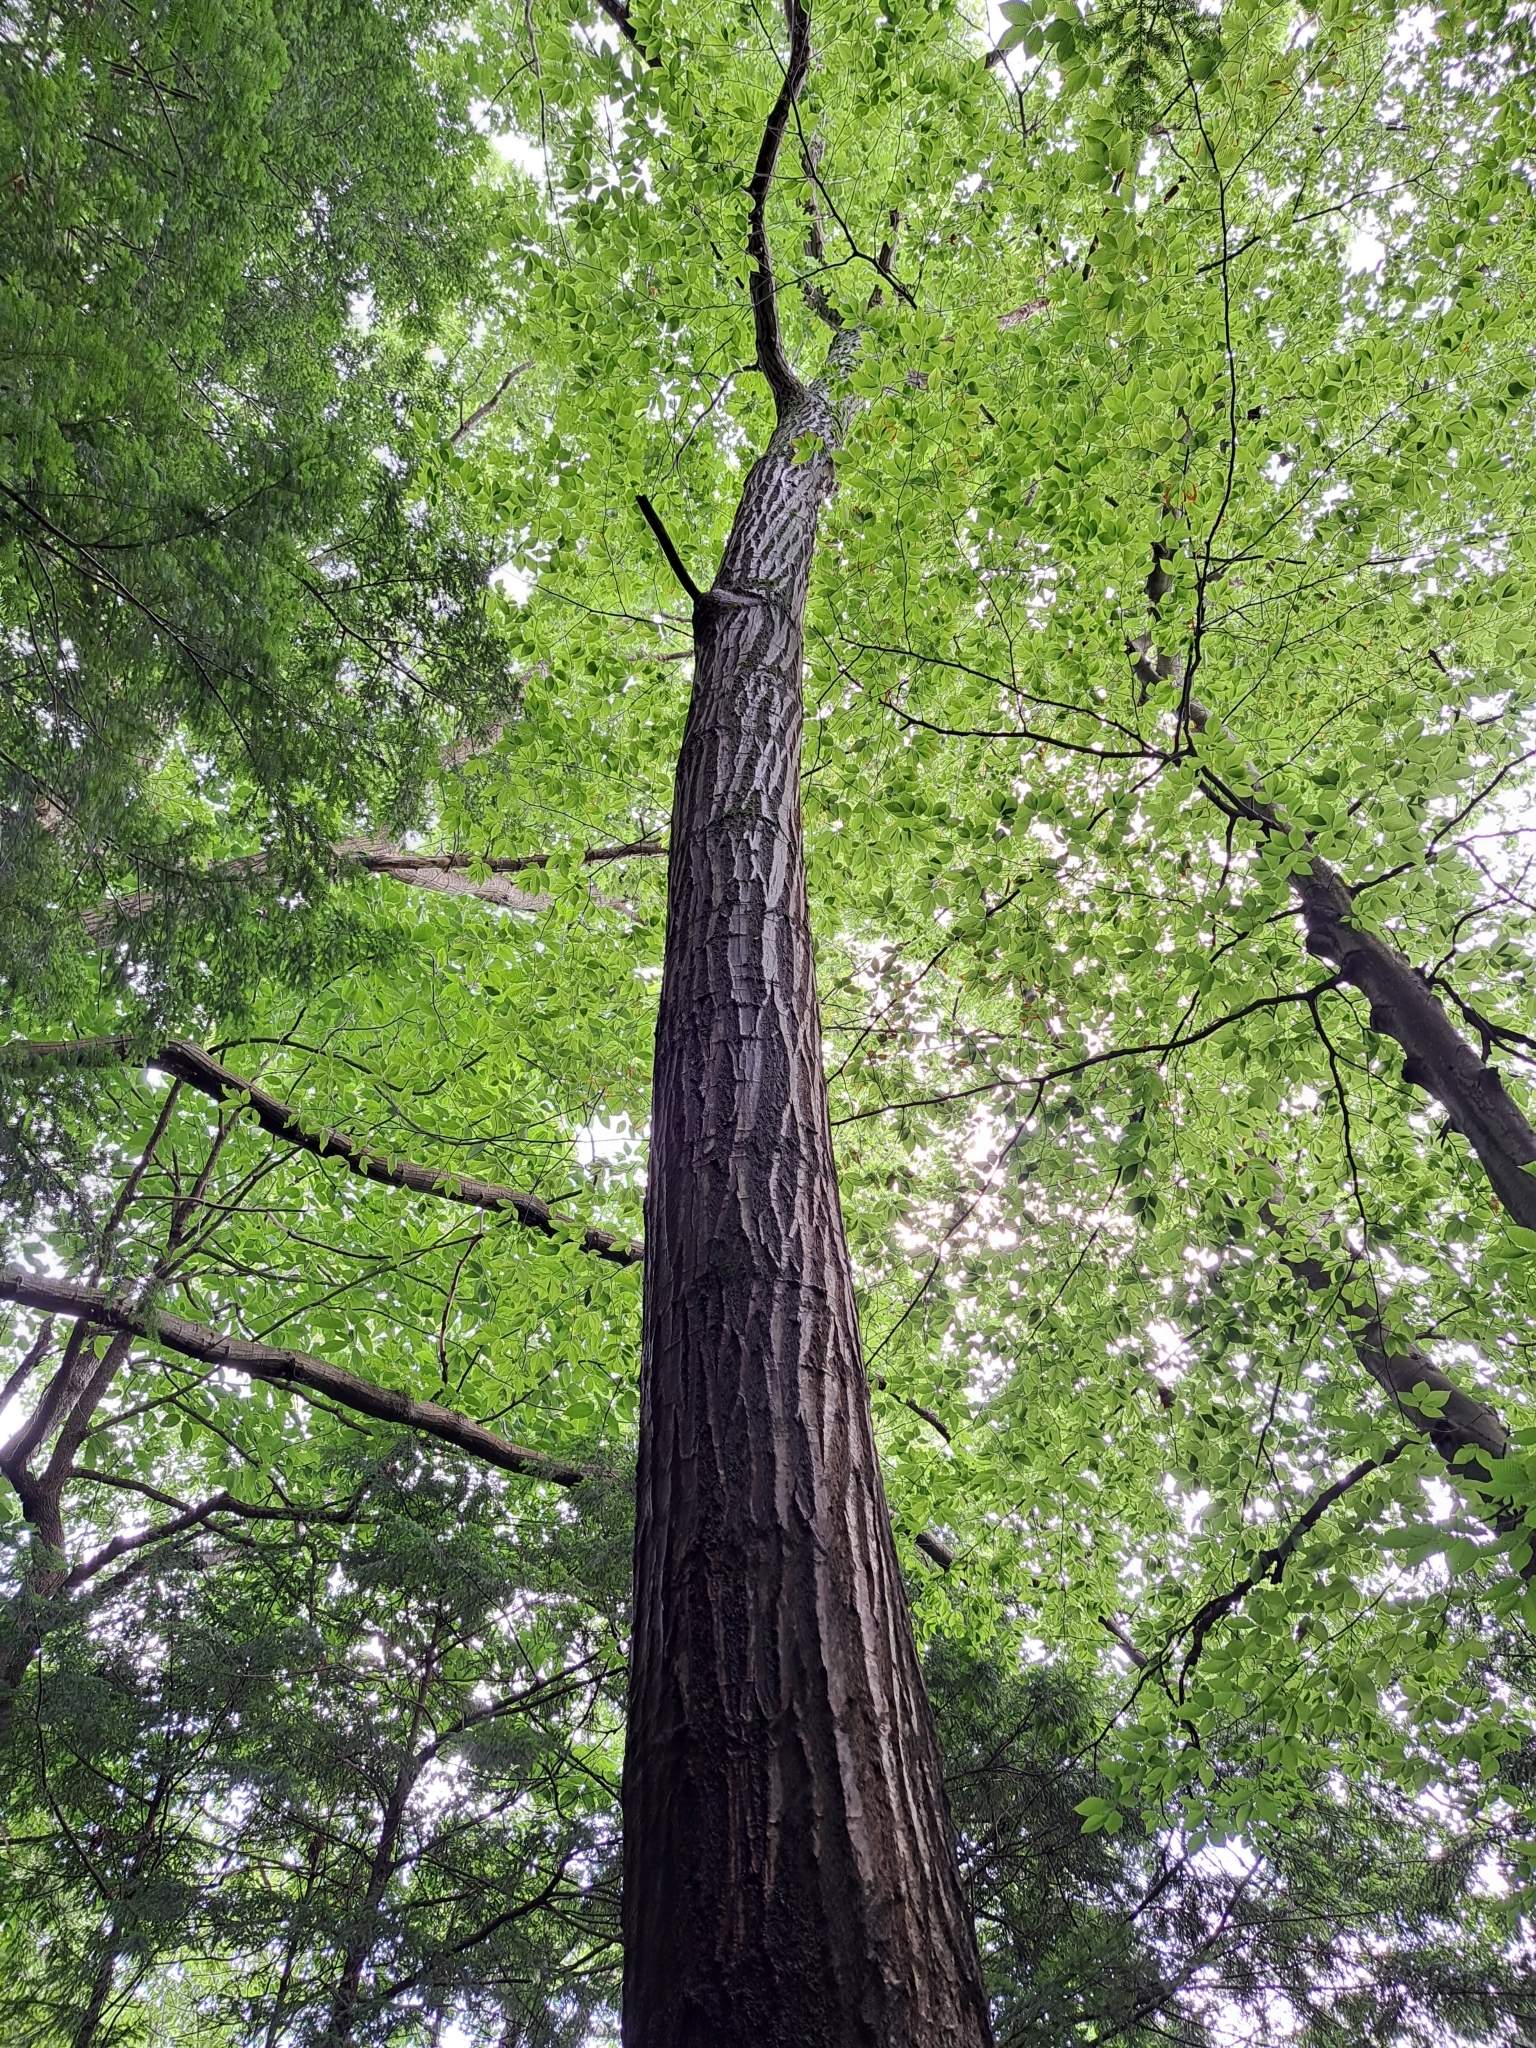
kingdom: Plantae
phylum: Tracheophyta
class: Magnoliopsida
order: Fagales
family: Fagaceae
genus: Quercus
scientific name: Quercus rubra
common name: Red oak
